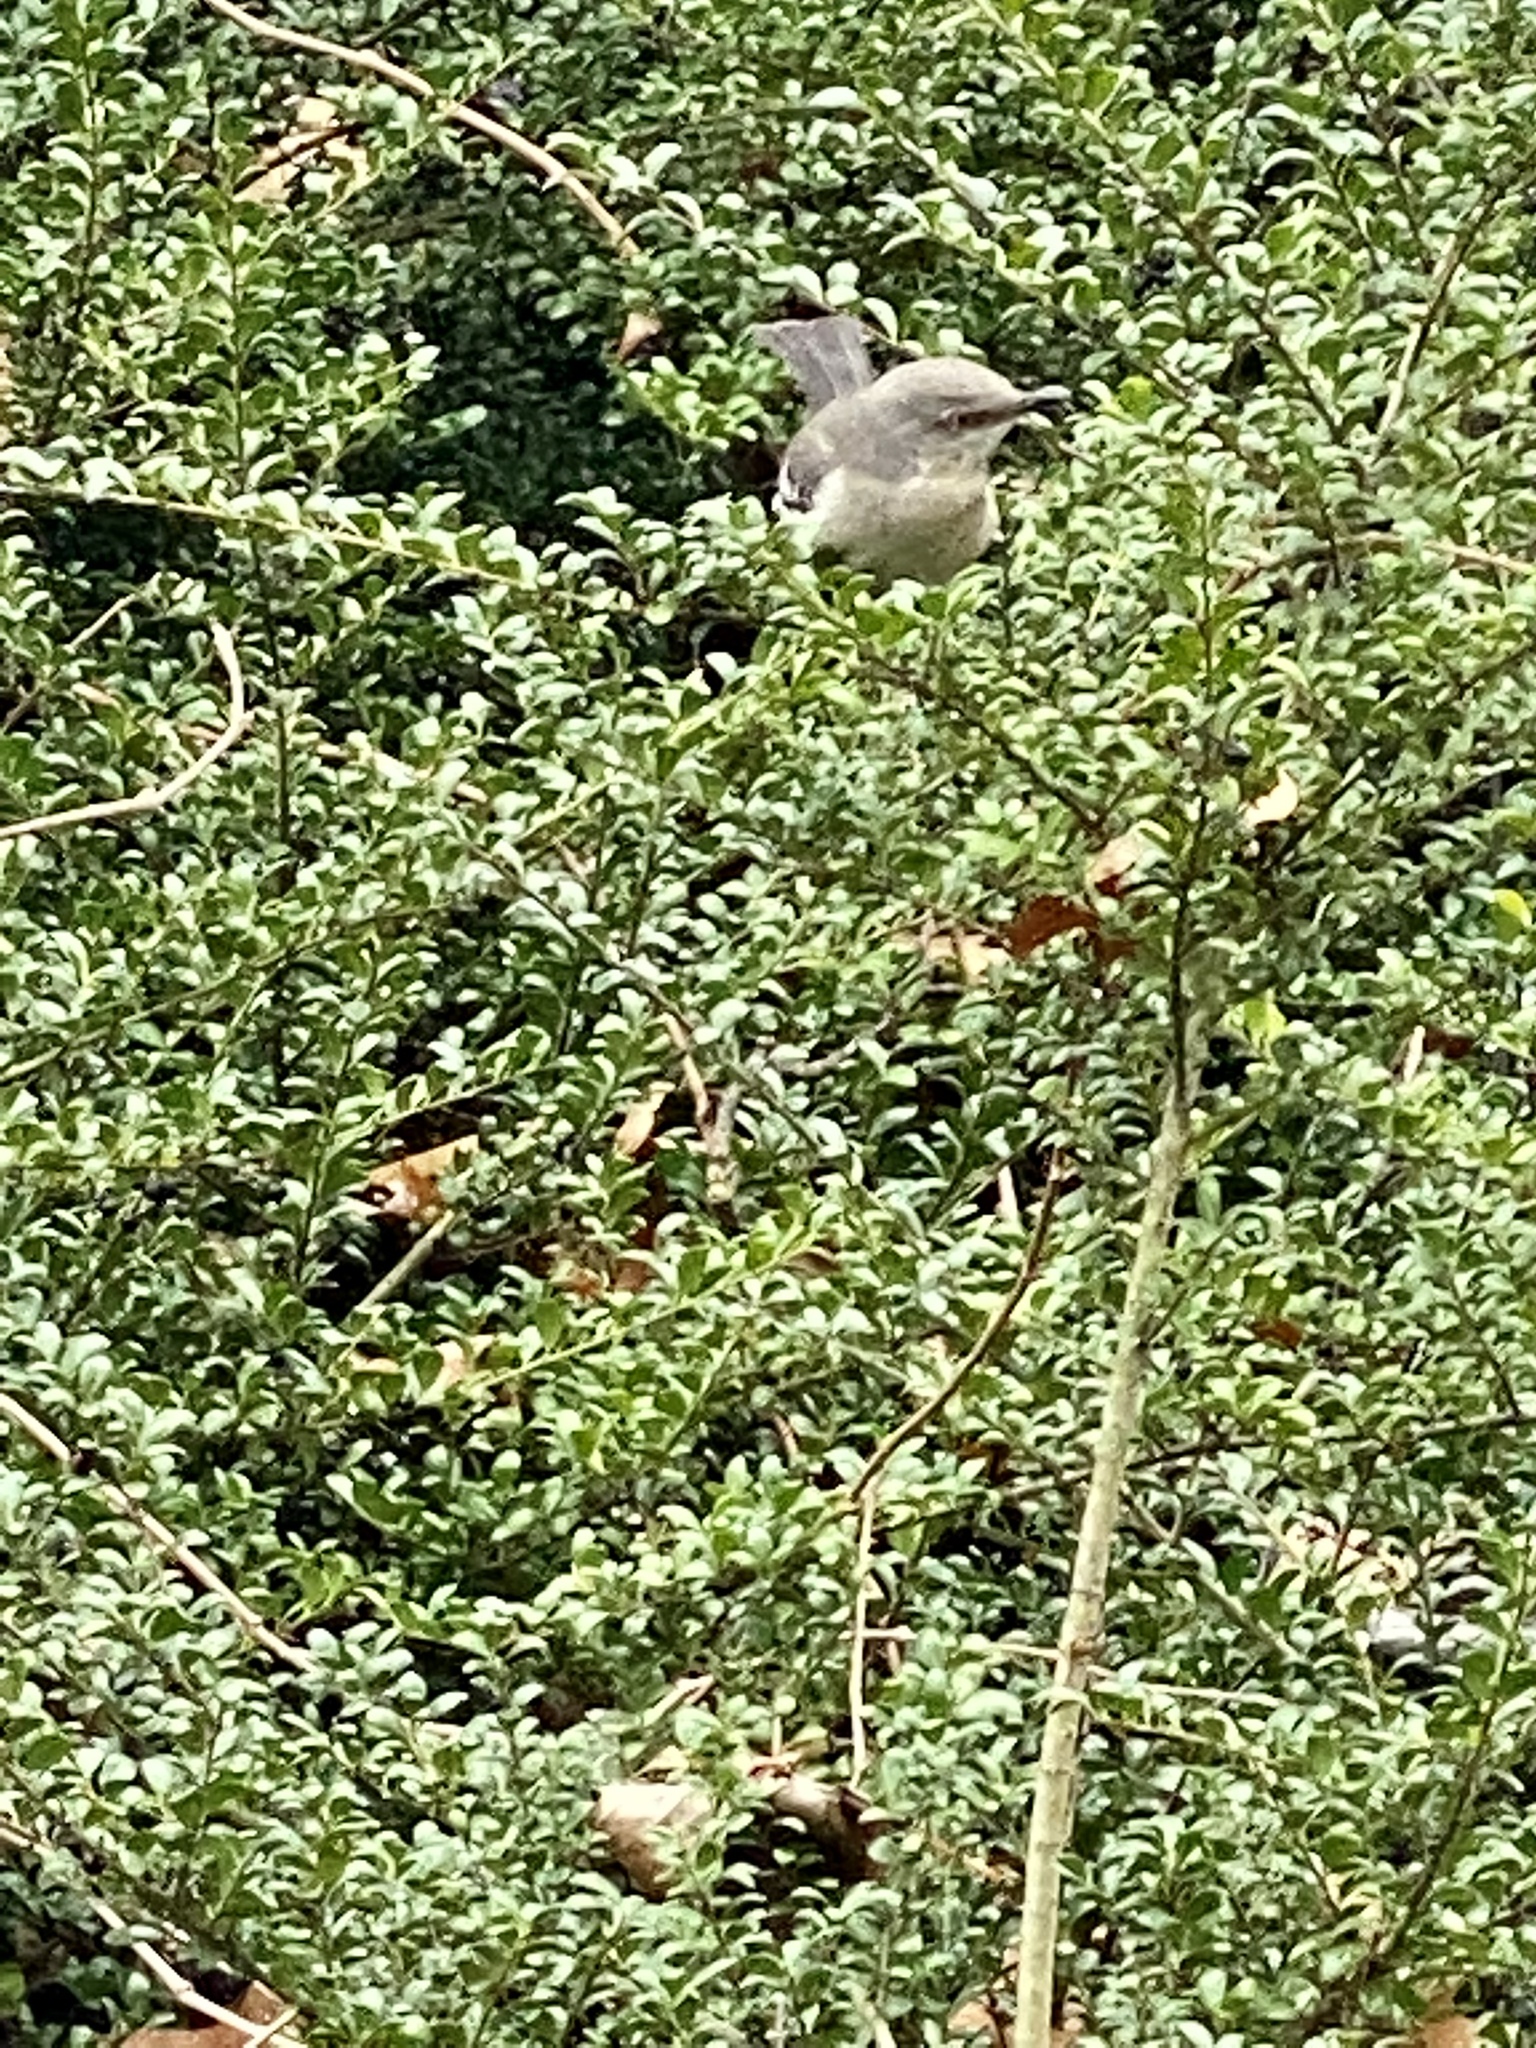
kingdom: Animalia
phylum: Chordata
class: Aves
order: Passeriformes
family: Mimidae
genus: Mimus
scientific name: Mimus polyglottos
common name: Northern mockingbird
